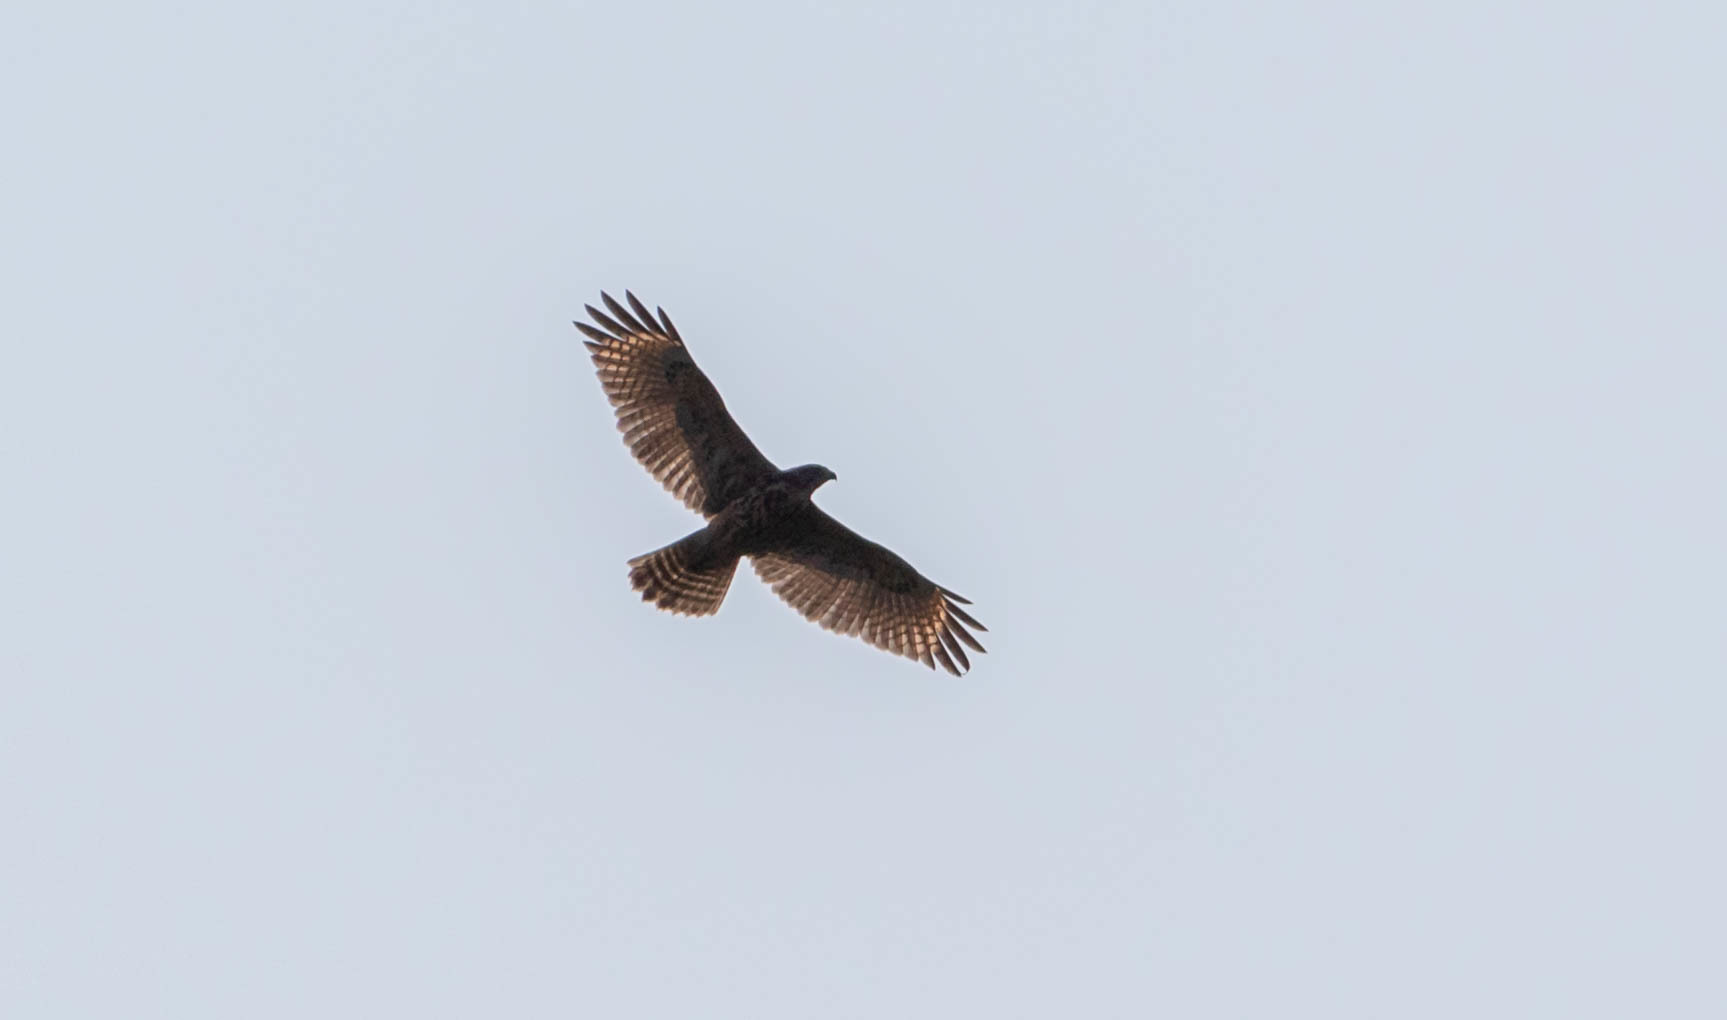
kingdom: Animalia
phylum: Chordata
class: Aves
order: Accipitriformes
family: Accipitridae
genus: Buteo
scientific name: Buteo lineatus
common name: Red-shouldered hawk
